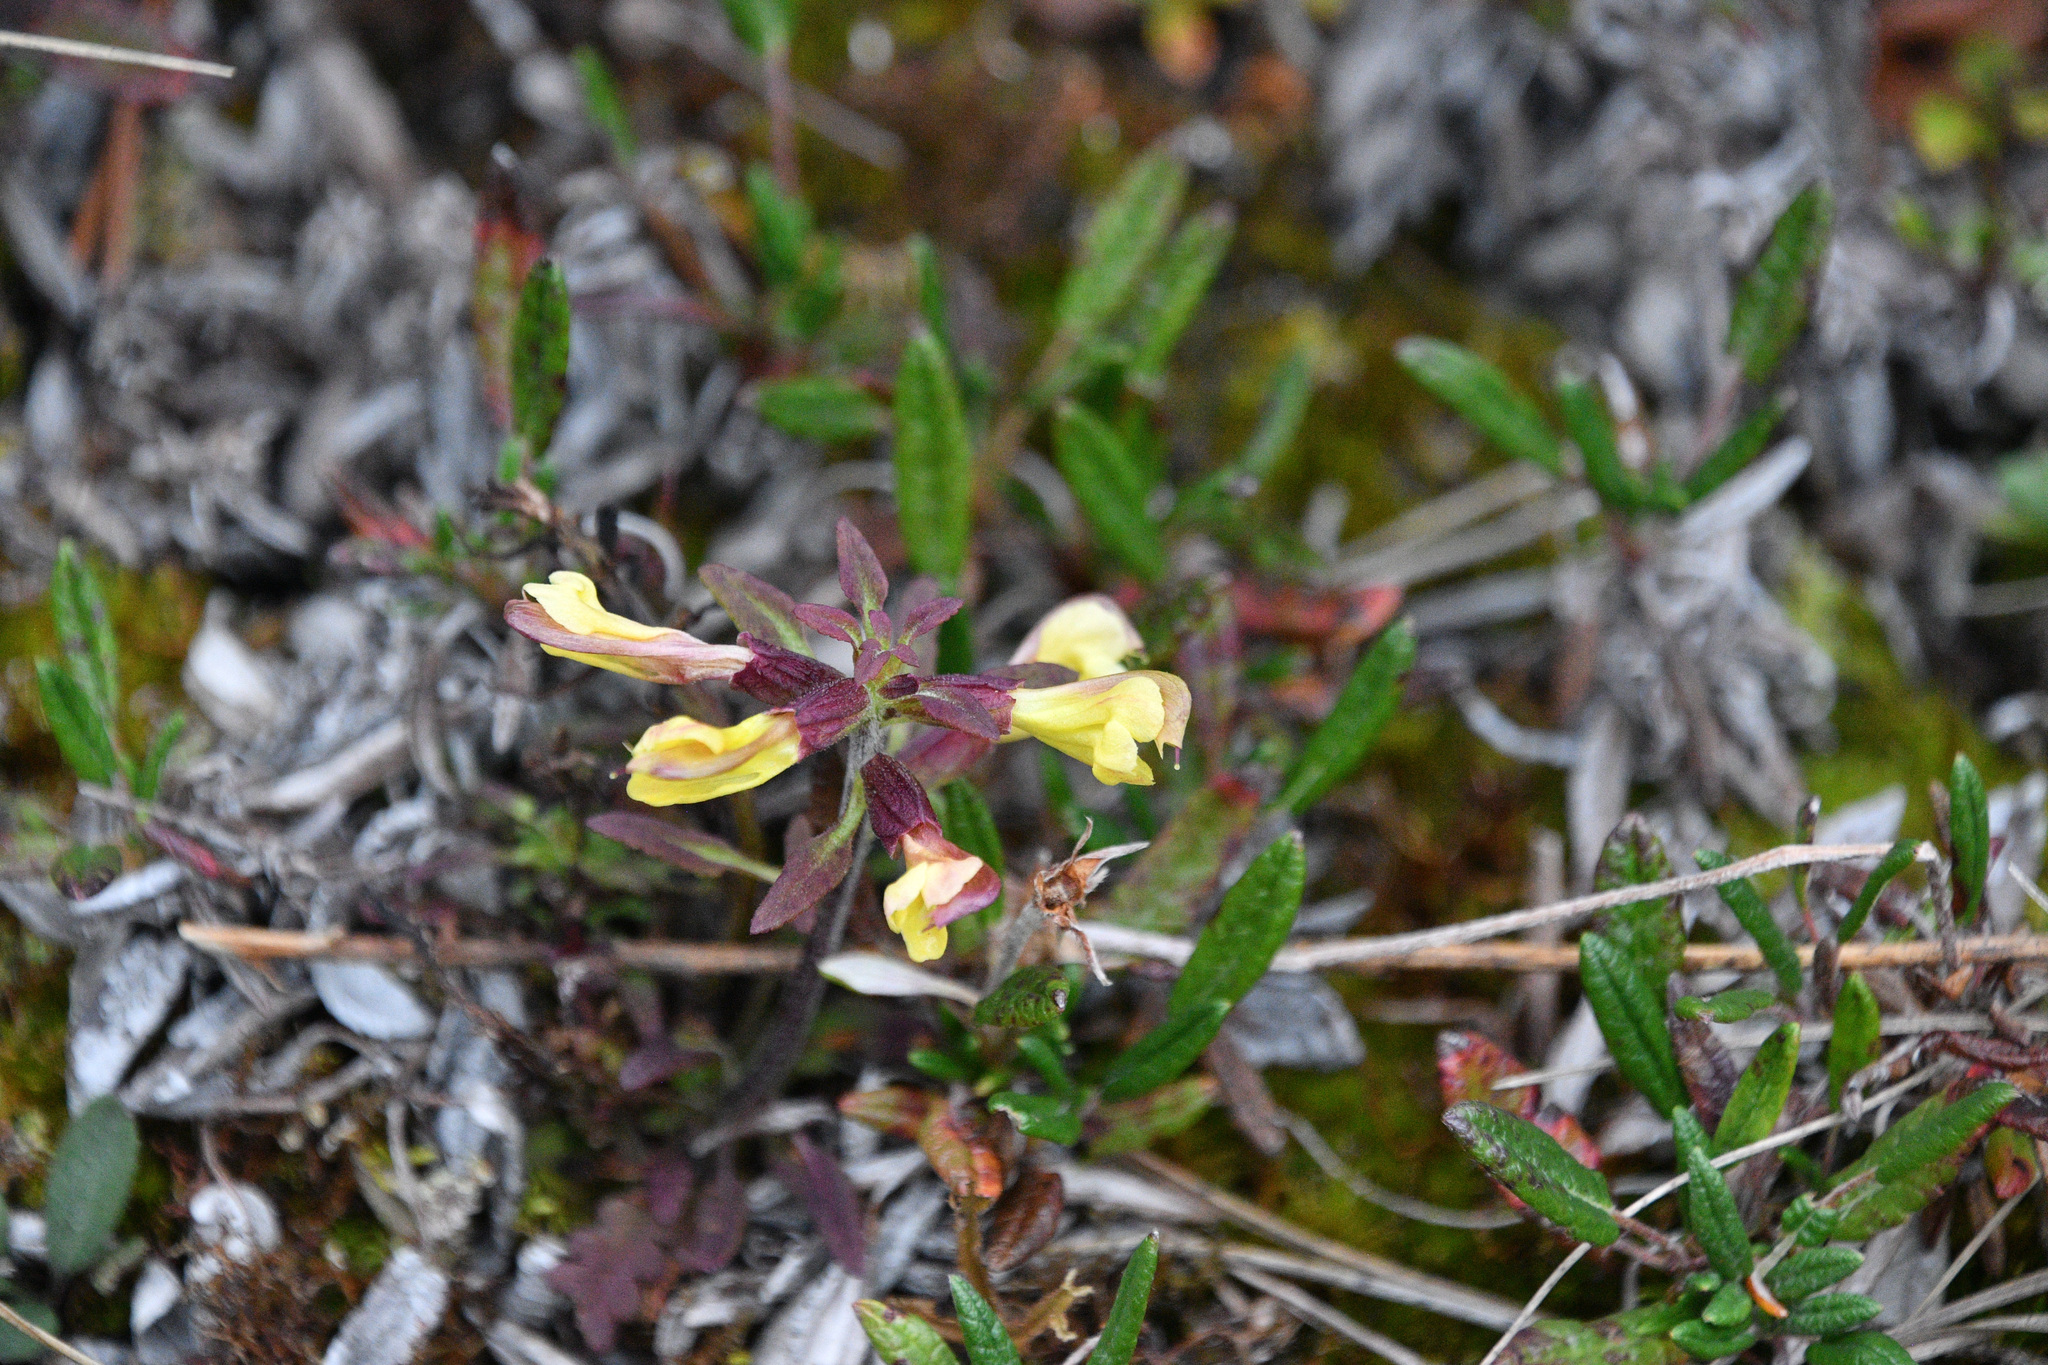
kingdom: Plantae
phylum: Tracheophyta
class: Magnoliopsida
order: Lamiales
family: Orobanchaceae
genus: Pedicularis
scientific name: Pedicularis labradorica
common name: Labrador lousewort
